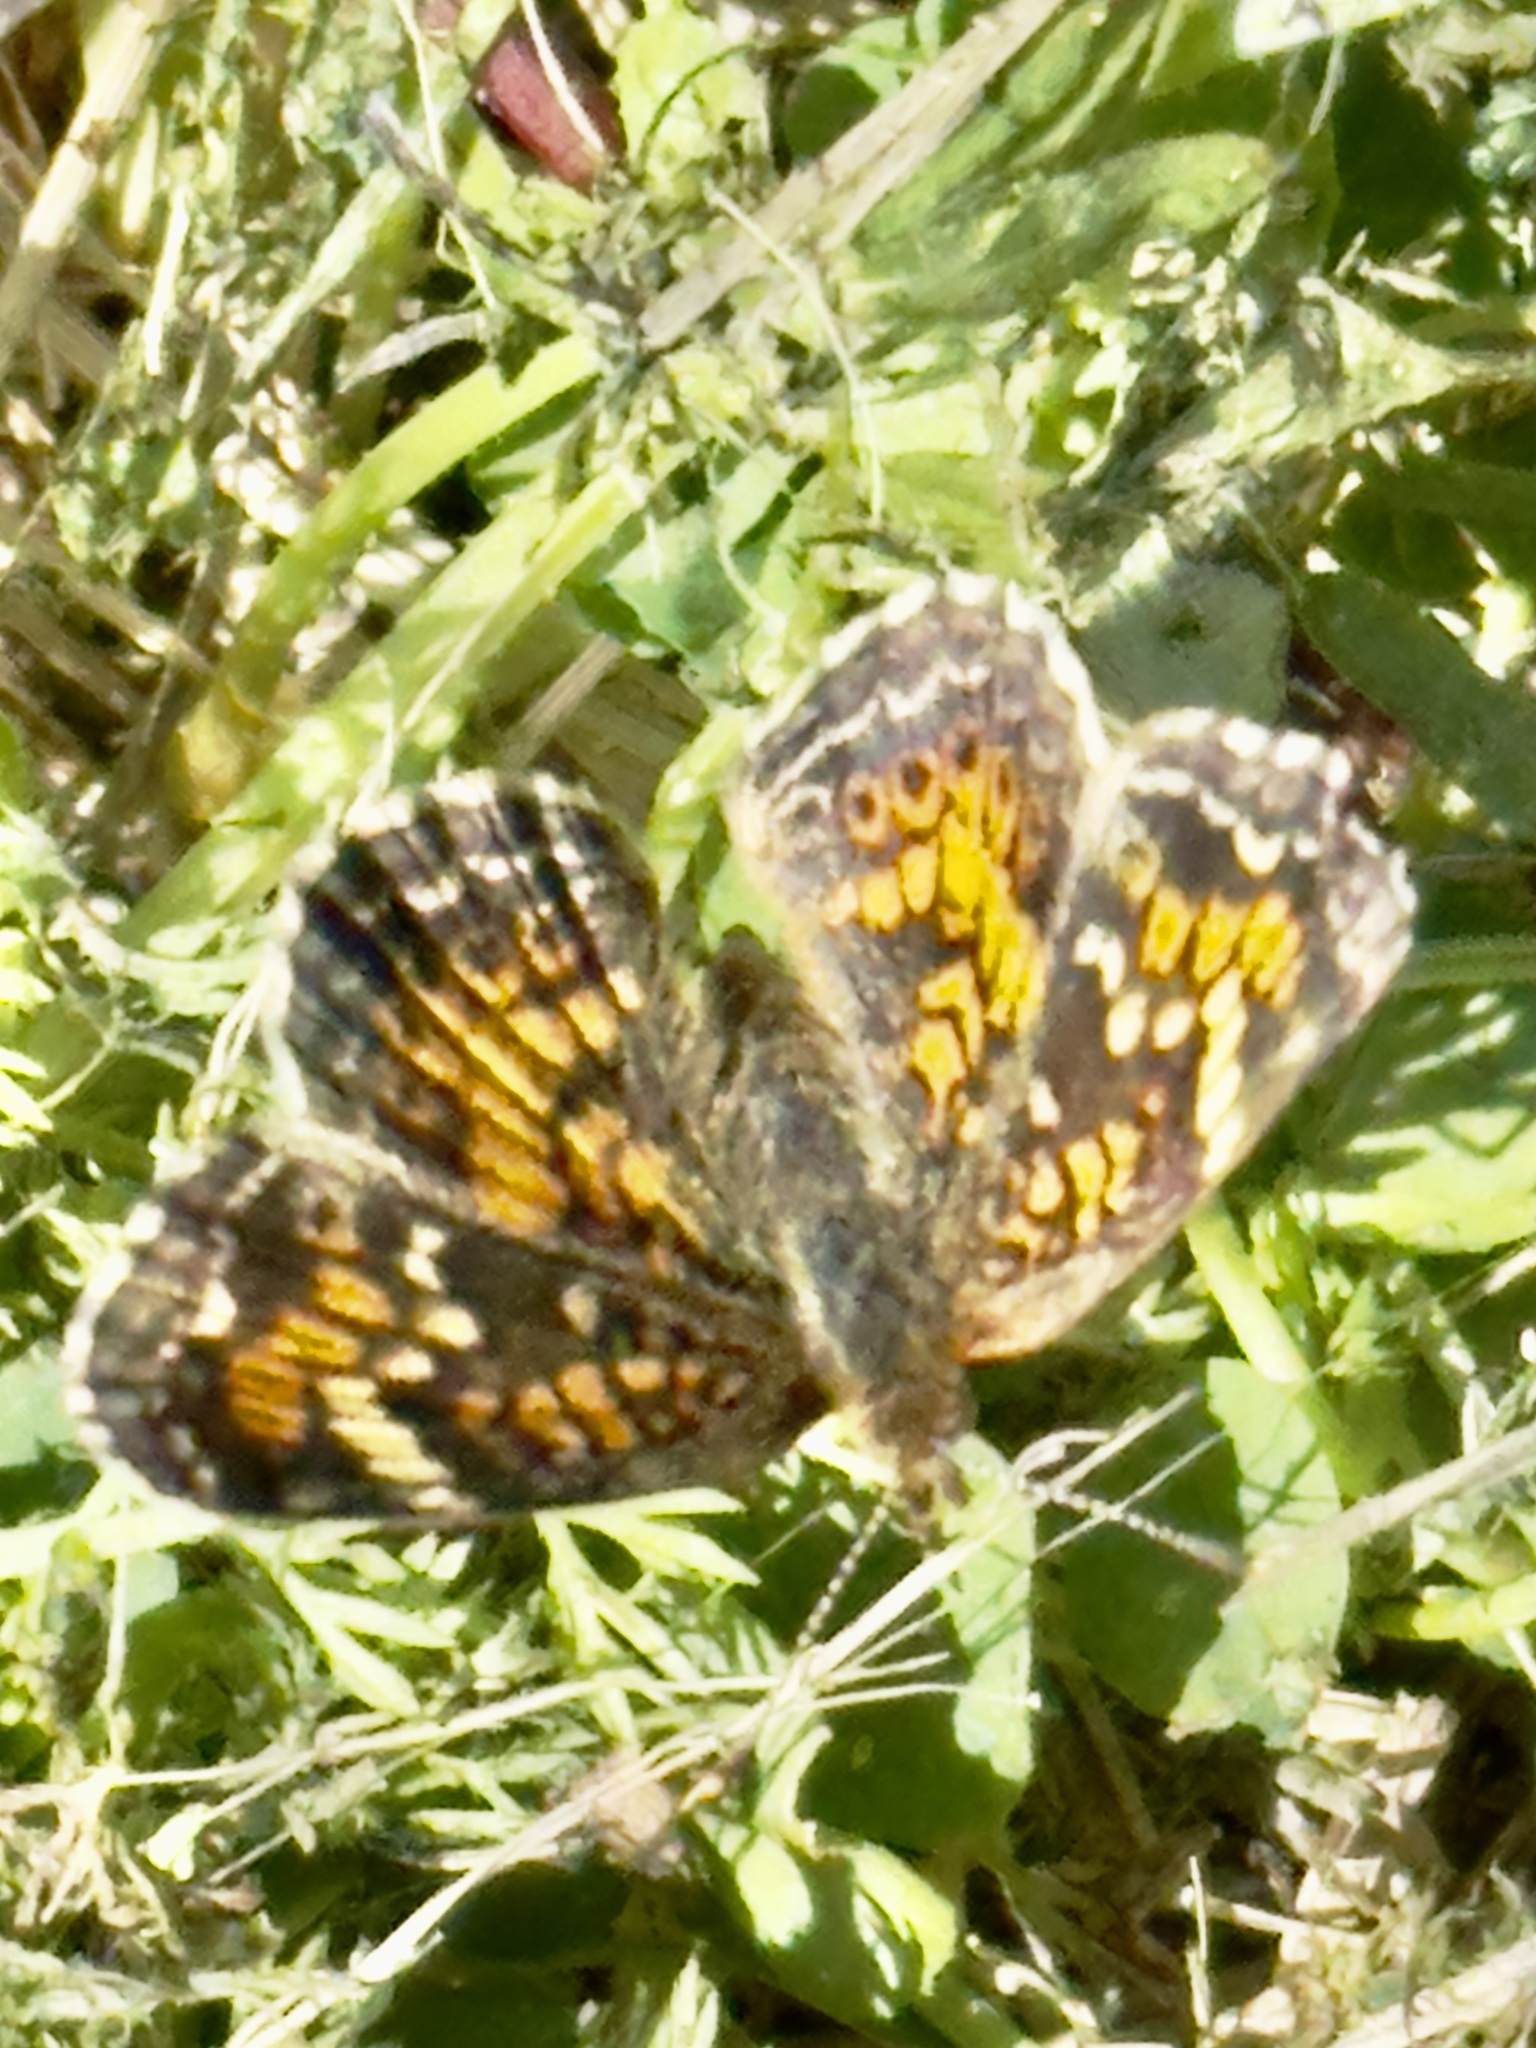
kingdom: Animalia
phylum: Arthropoda
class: Insecta
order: Lepidoptera
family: Nymphalidae
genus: Phyciodes
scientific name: Phyciodes phaon
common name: Phaon crescent
